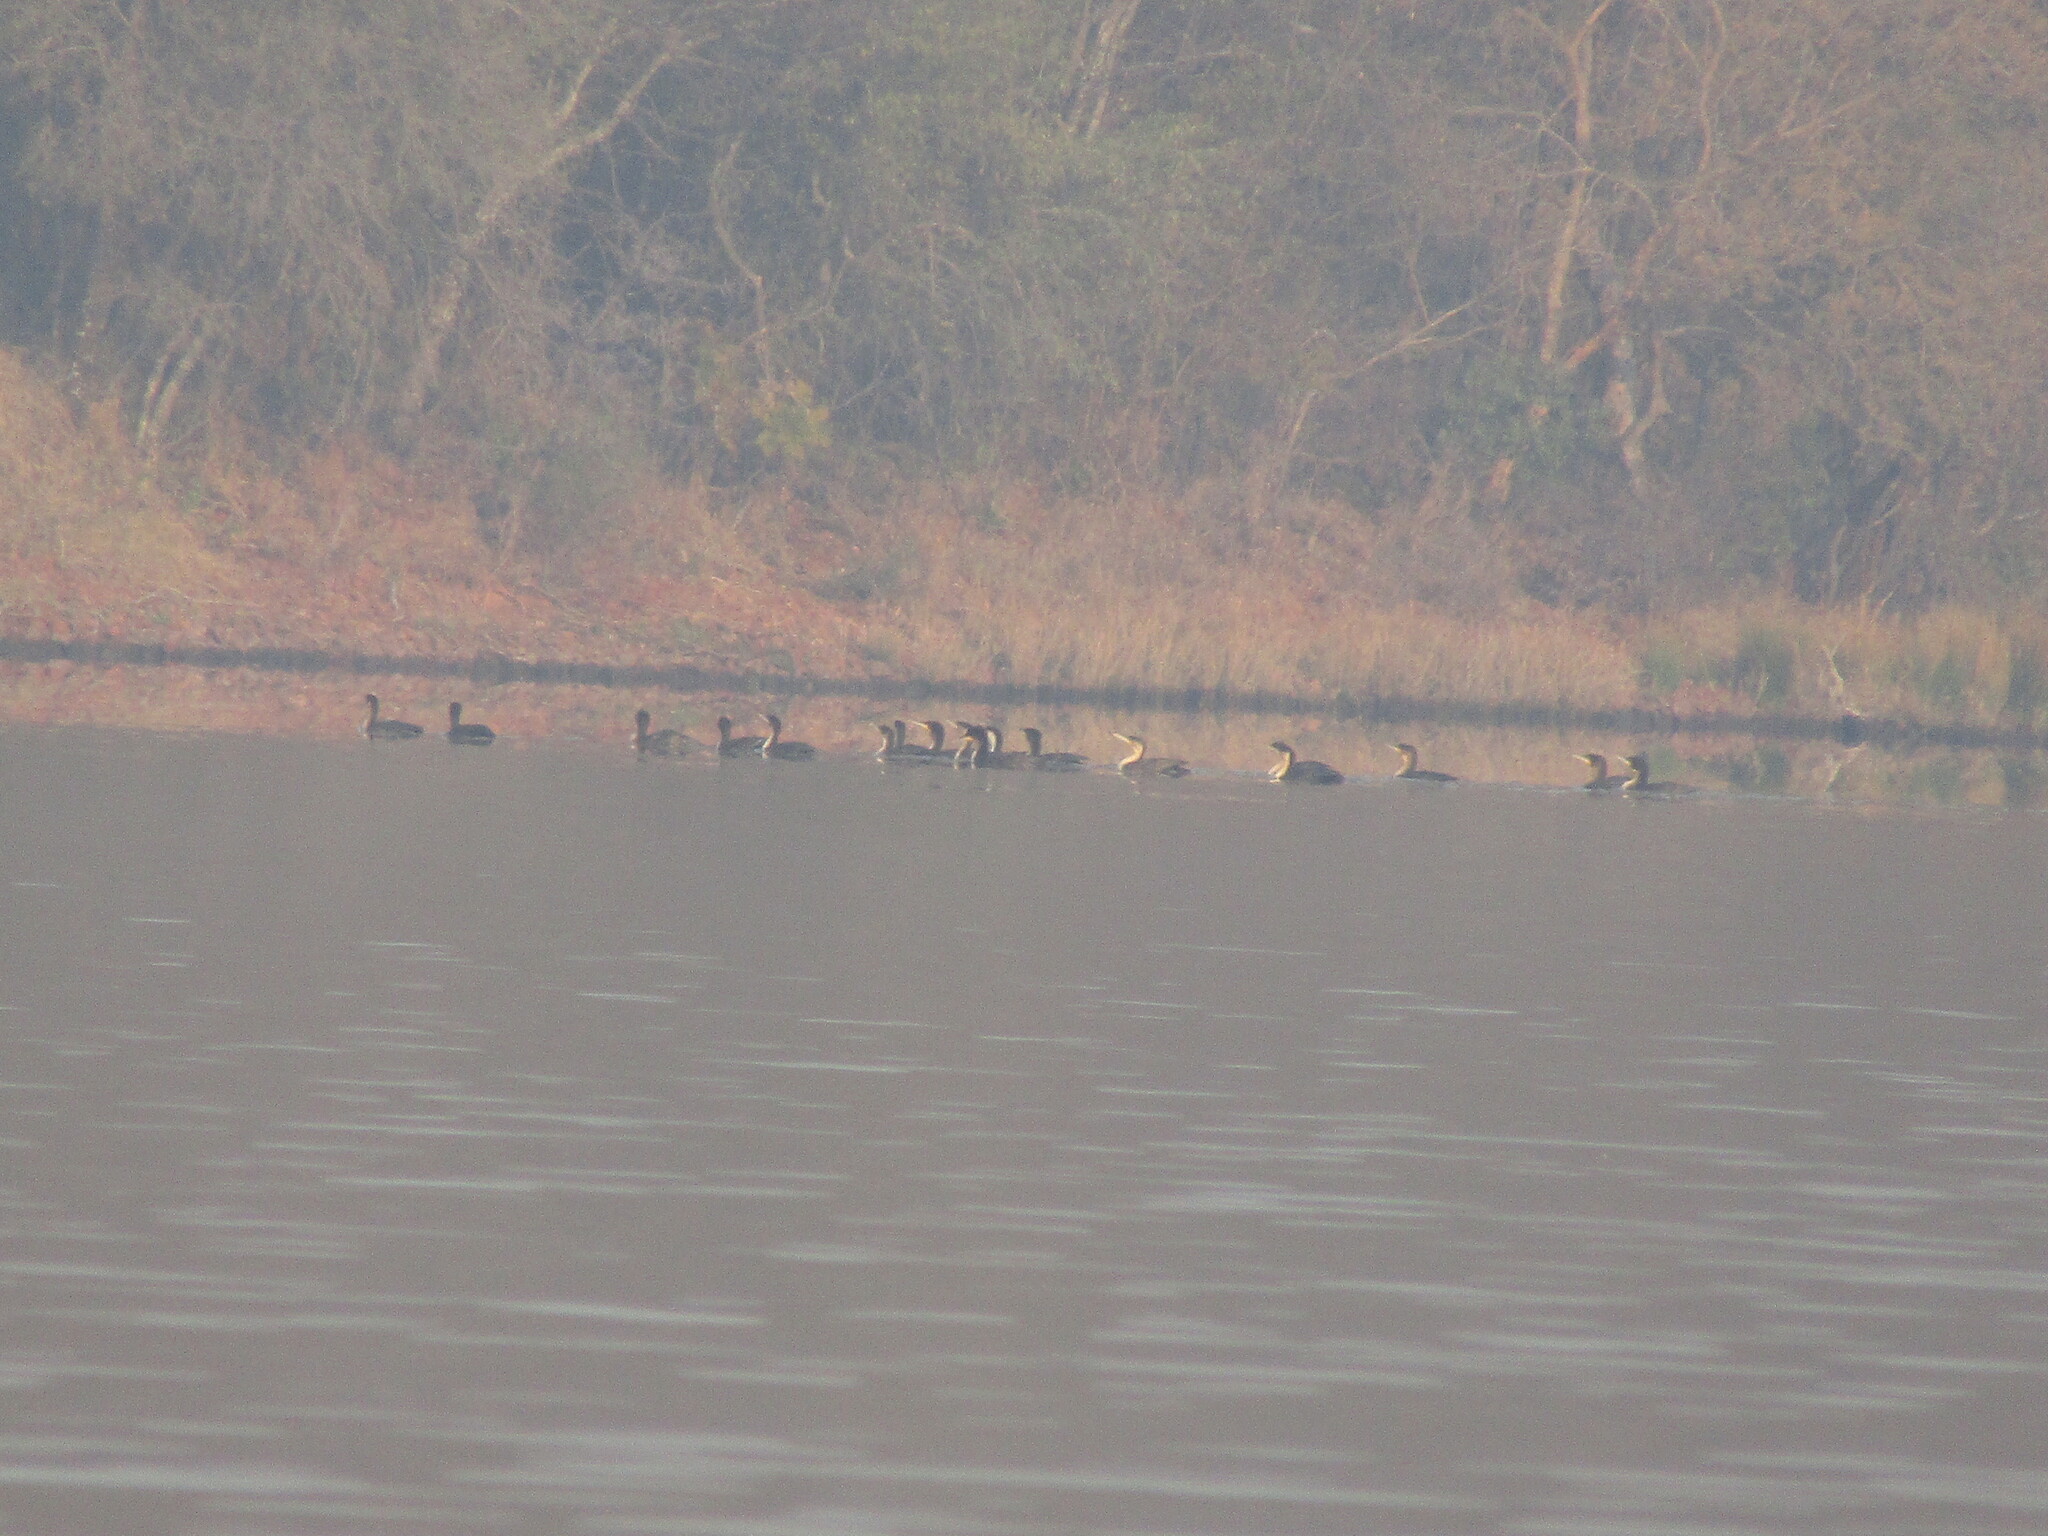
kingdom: Animalia
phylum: Chordata
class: Aves
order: Suliformes
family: Phalacrocoracidae
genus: Phalacrocorax
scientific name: Phalacrocorax carbo
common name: Great cormorant
